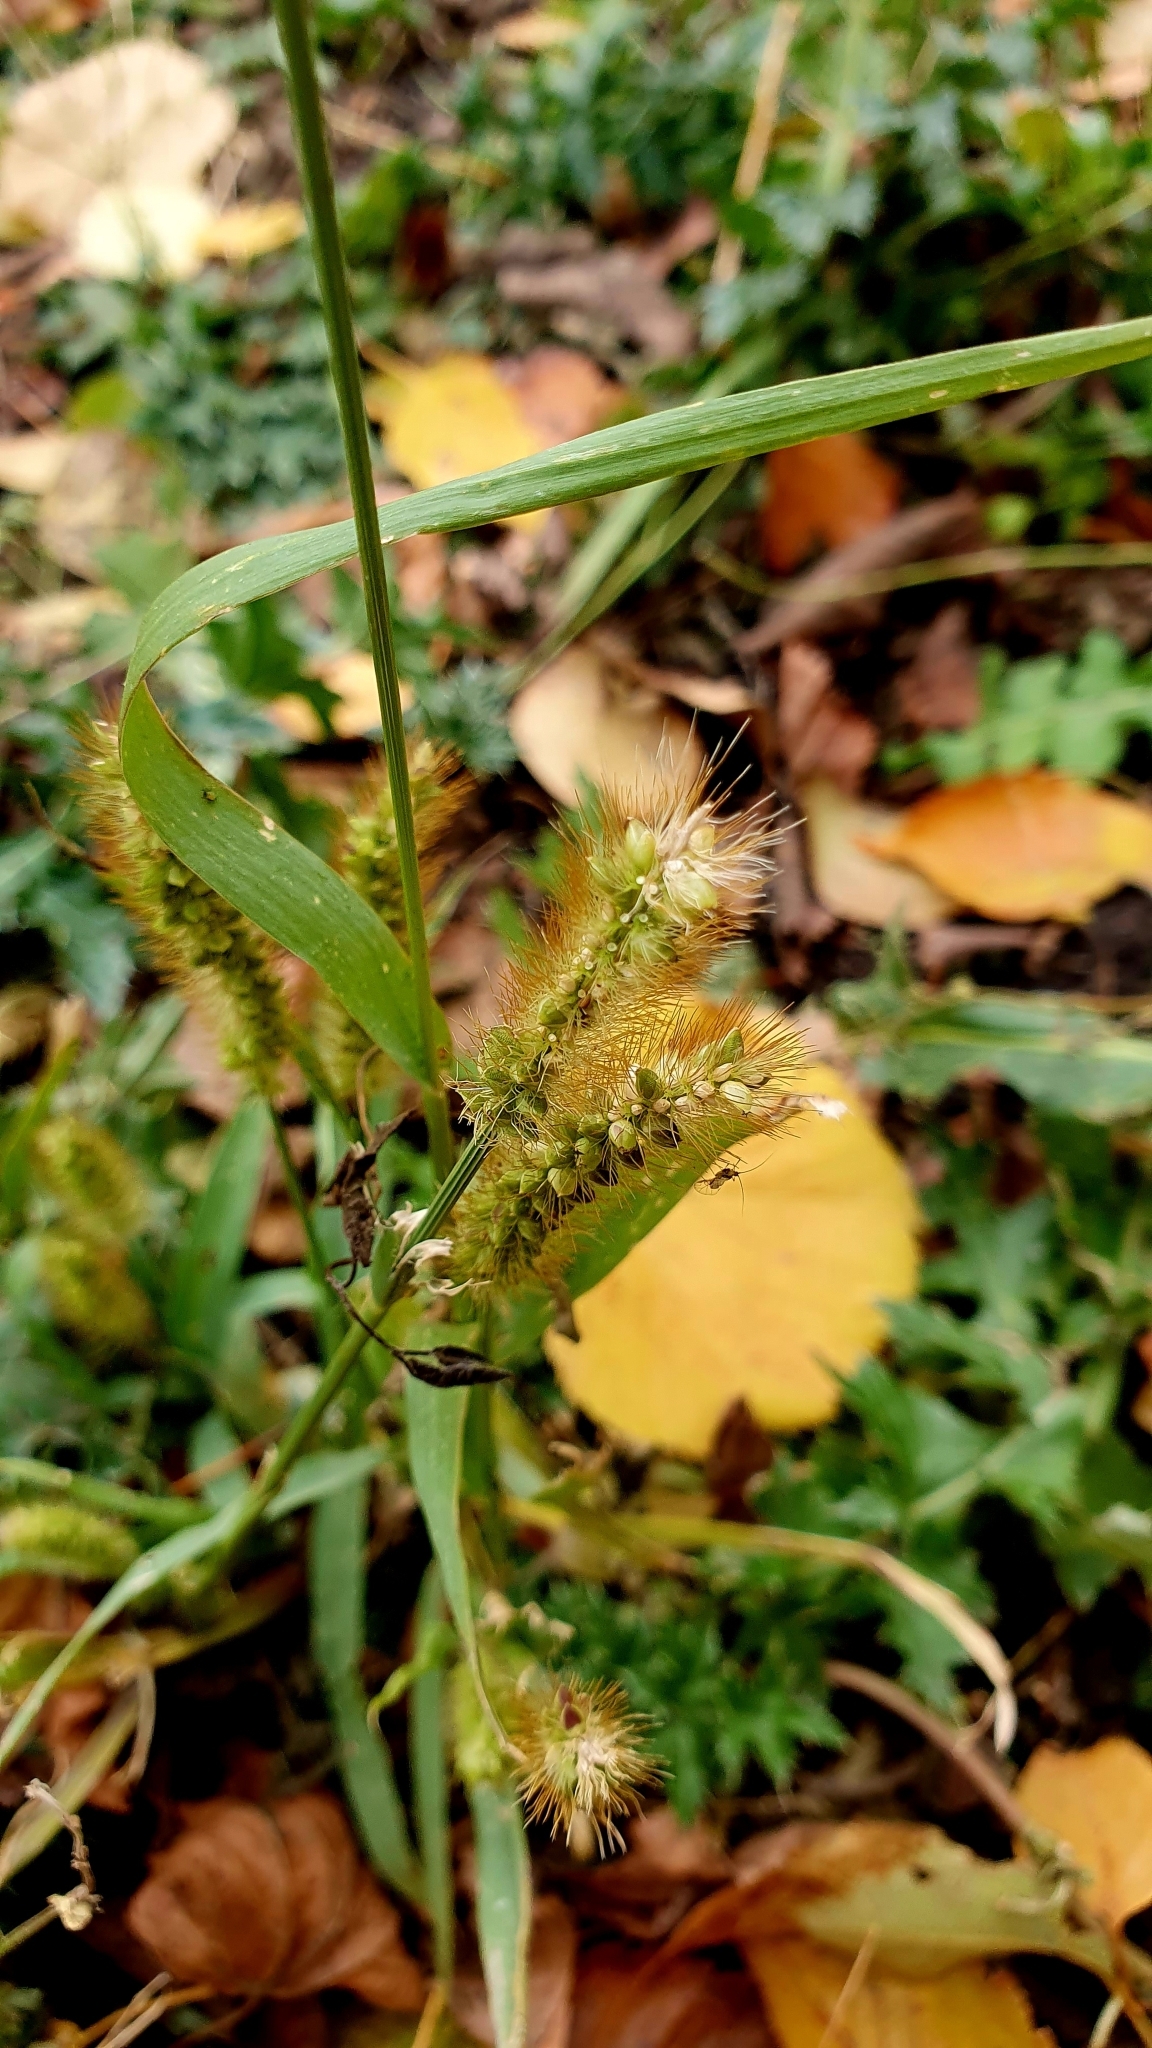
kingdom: Plantae
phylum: Tracheophyta
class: Liliopsida
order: Poales
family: Poaceae
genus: Setaria
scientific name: Setaria pumila
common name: Yellow bristle-grass
